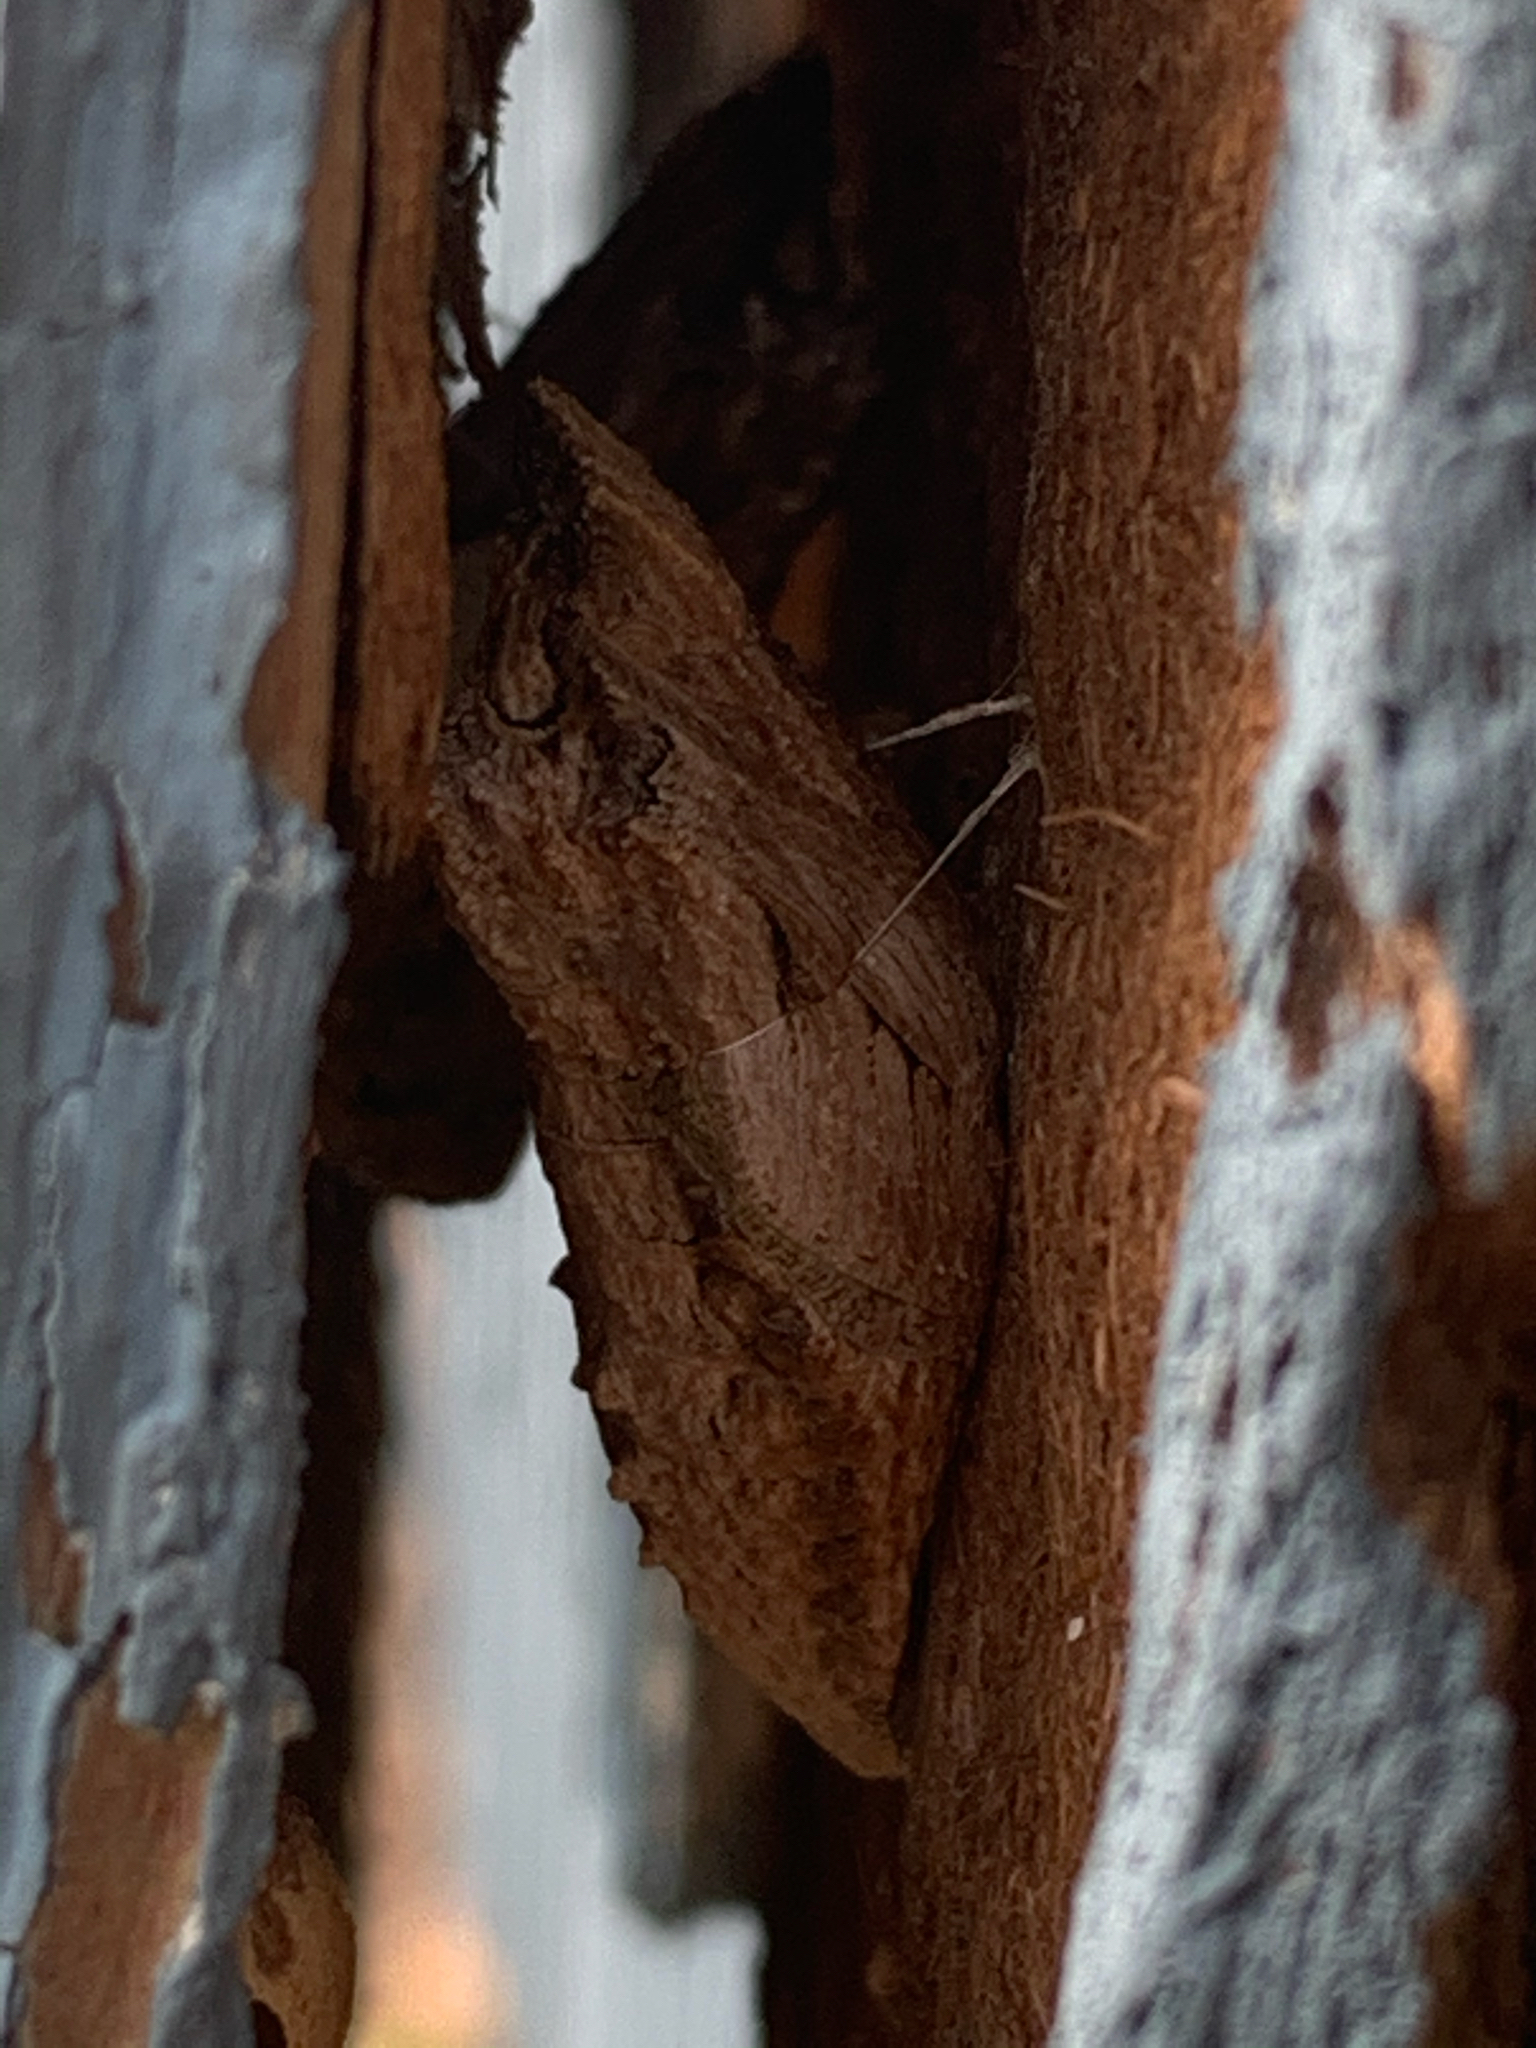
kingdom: Animalia
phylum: Arthropoda
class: Insecta
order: Lepidoptera
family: Papilionidae
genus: Papilio
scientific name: Papilio polyxenes
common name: Black swallowtail
